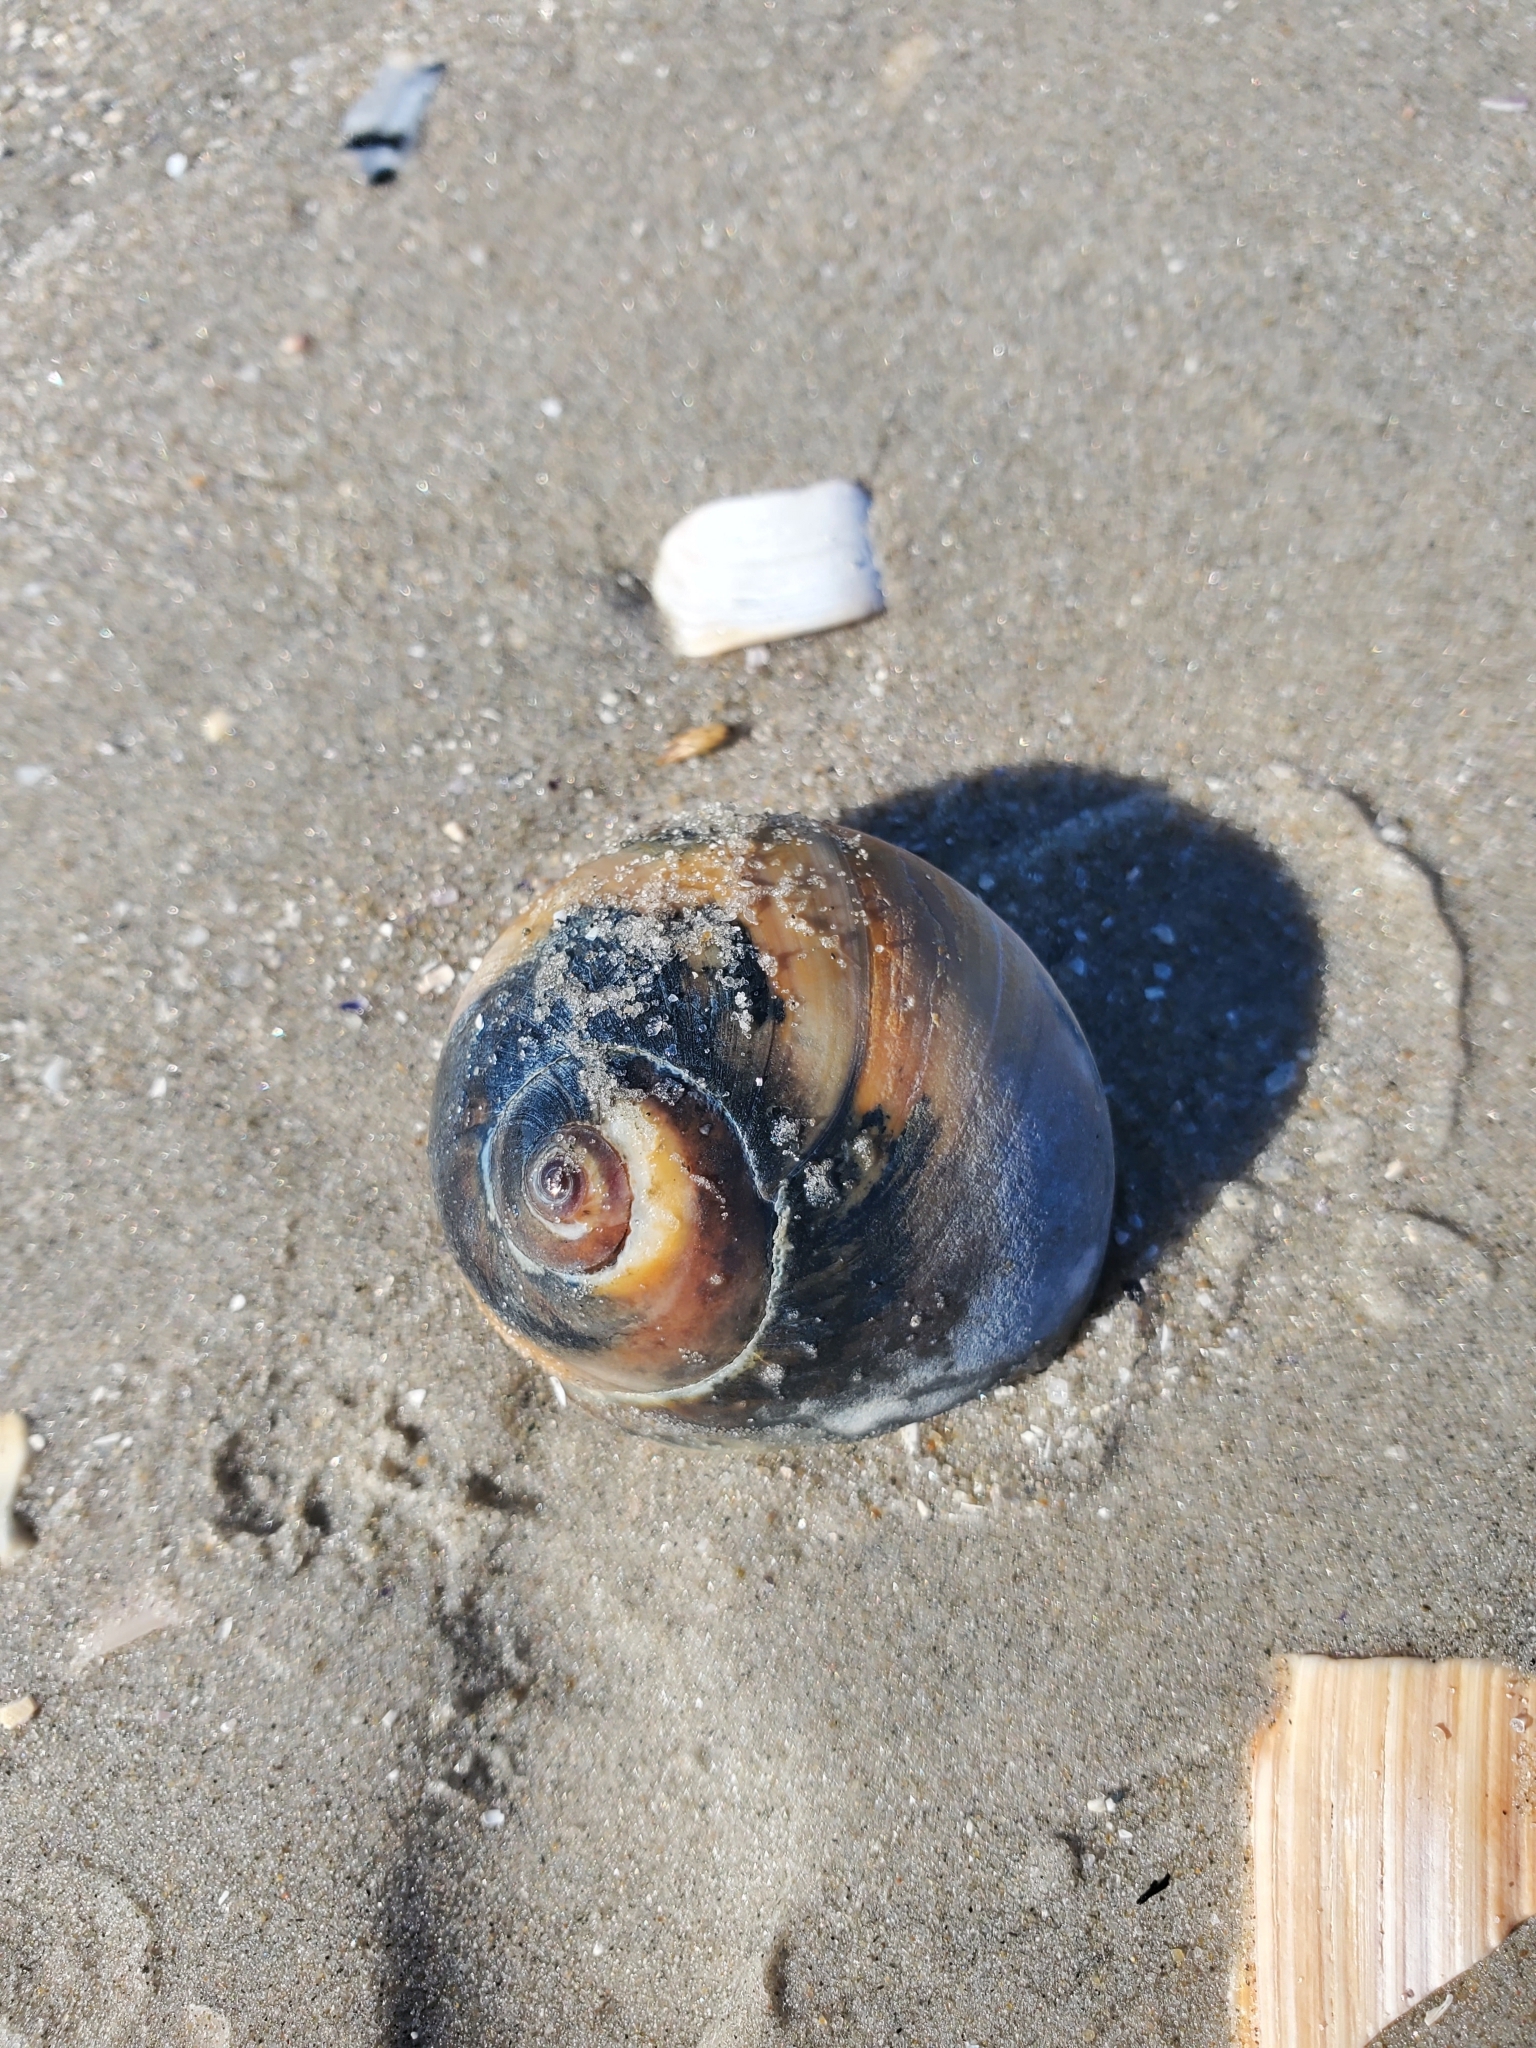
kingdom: Animalia
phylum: Mollusca
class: Gastropoda
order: Littorinimorpha
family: Naticidae
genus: Neverita
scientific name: Neverita duplicata
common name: Lobed moonsnail
